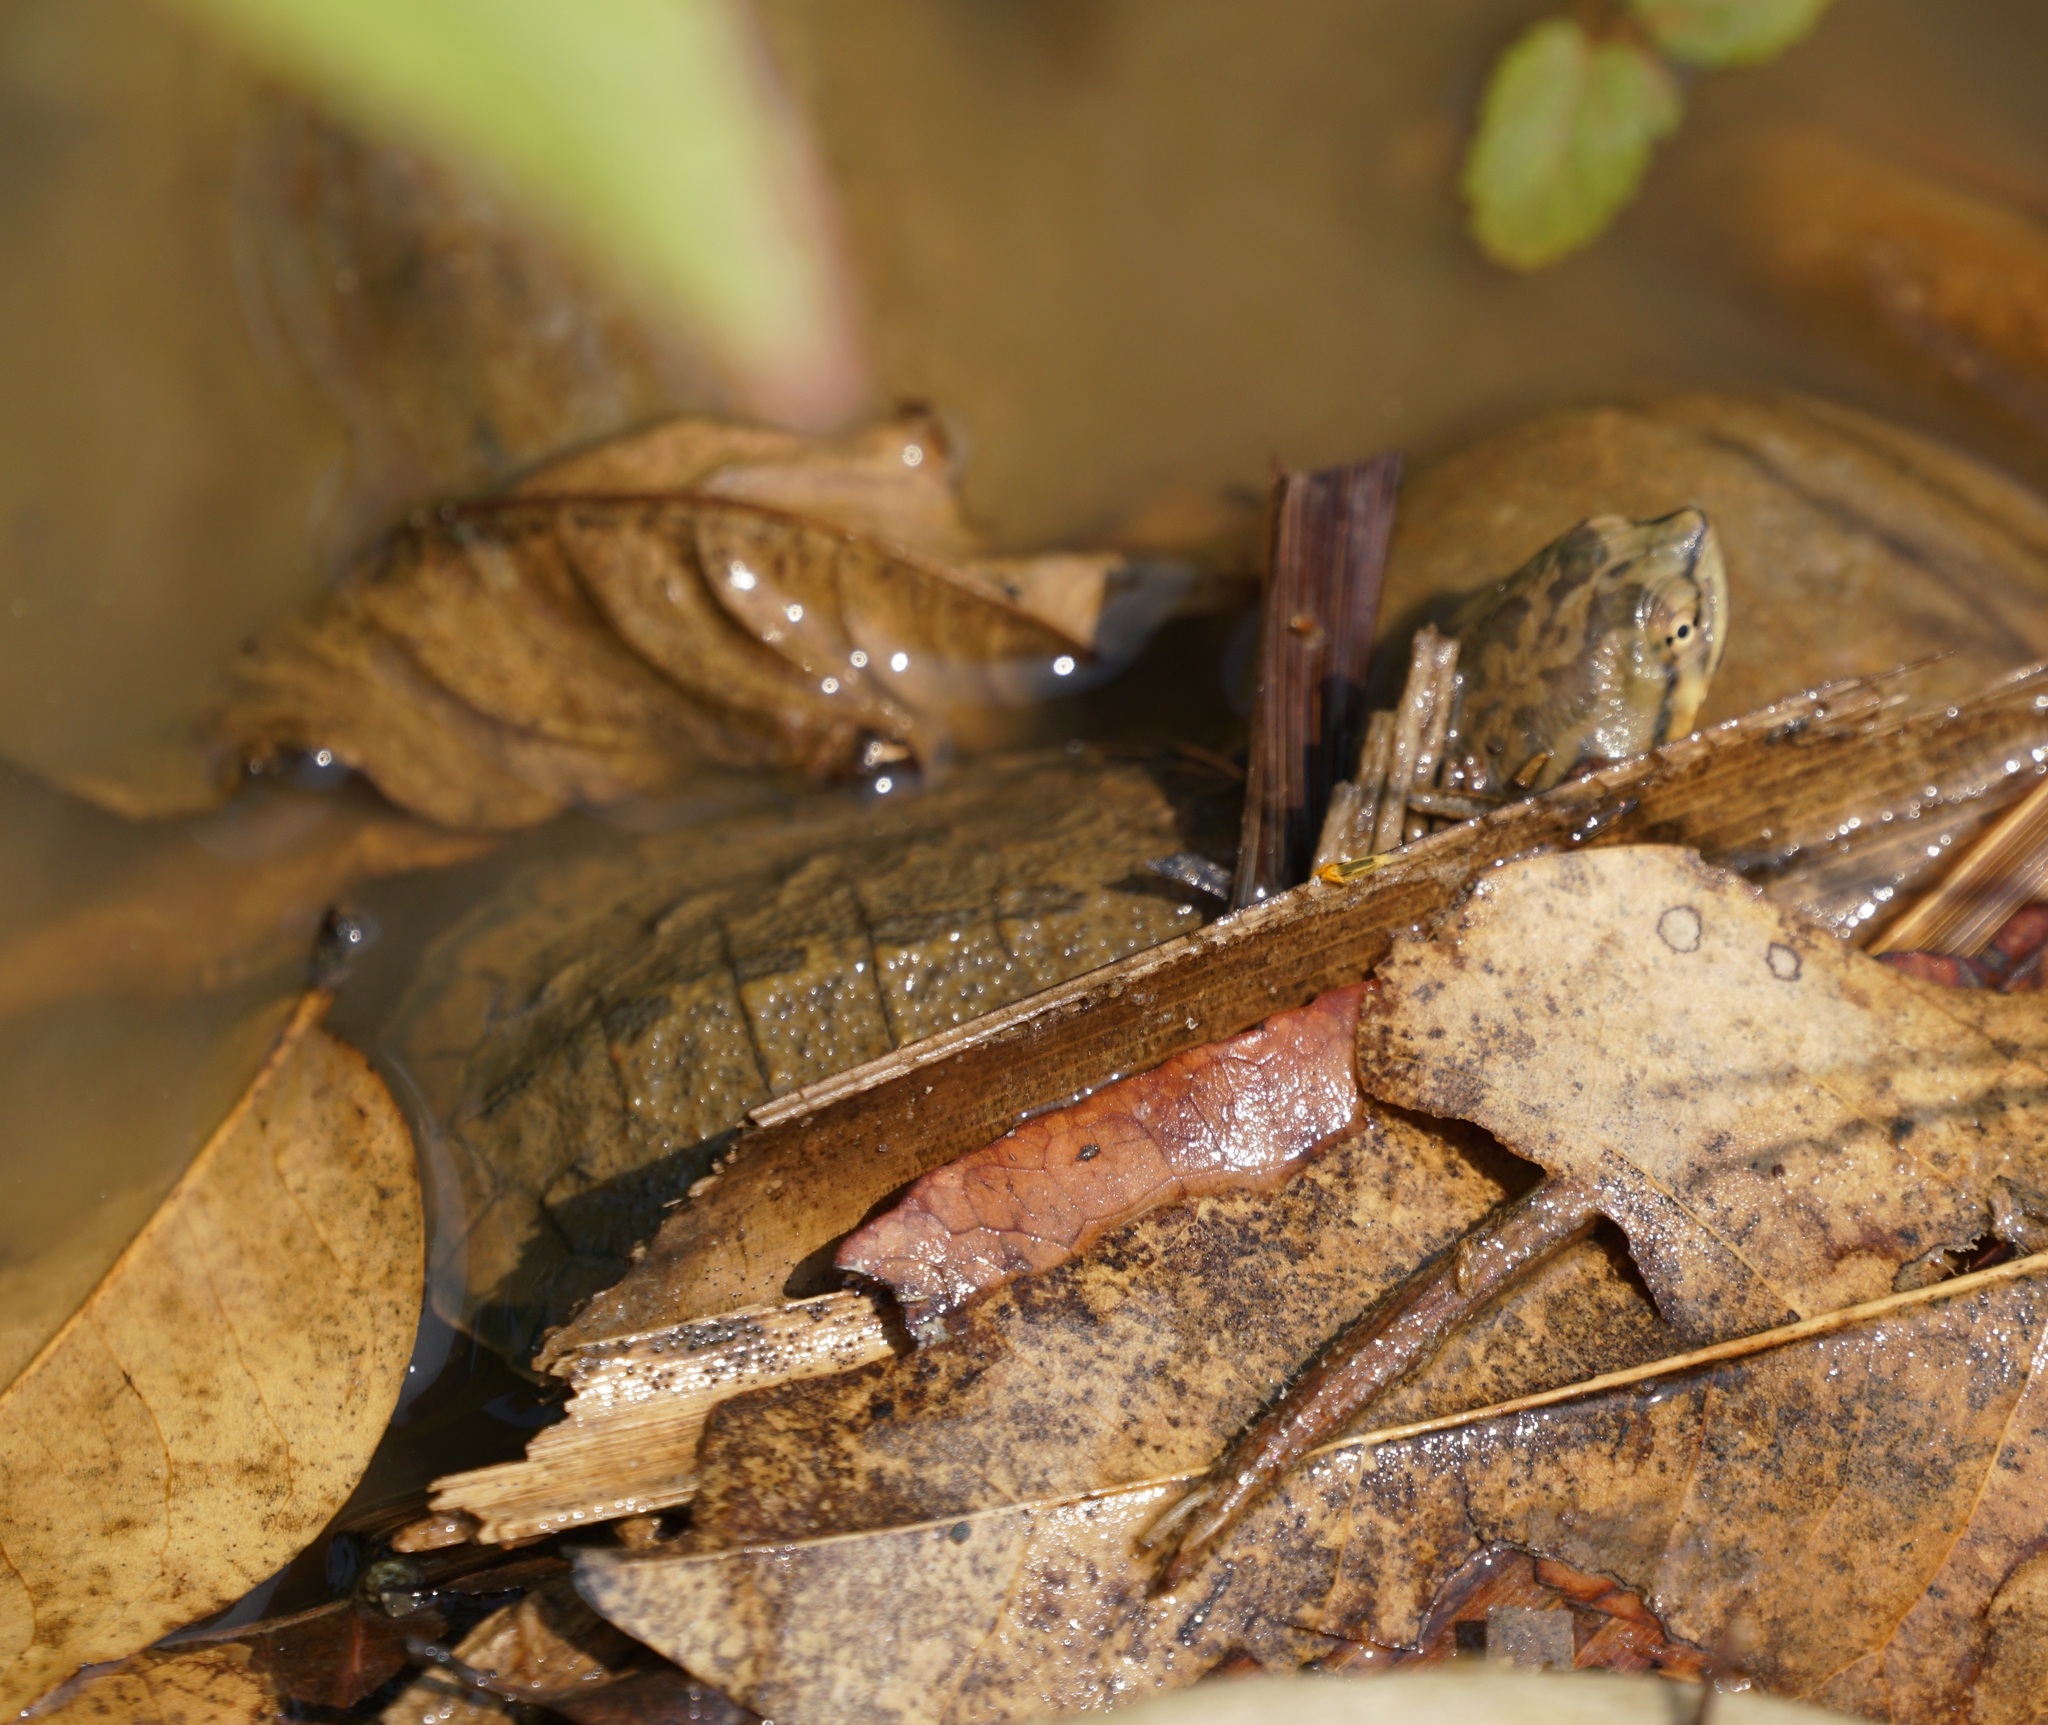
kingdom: Animalia
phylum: Chordata
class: Testudines
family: Chelidae
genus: Phrynops
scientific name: Phrynops geoffroanus
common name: Side-necked turtle of geoffroy
